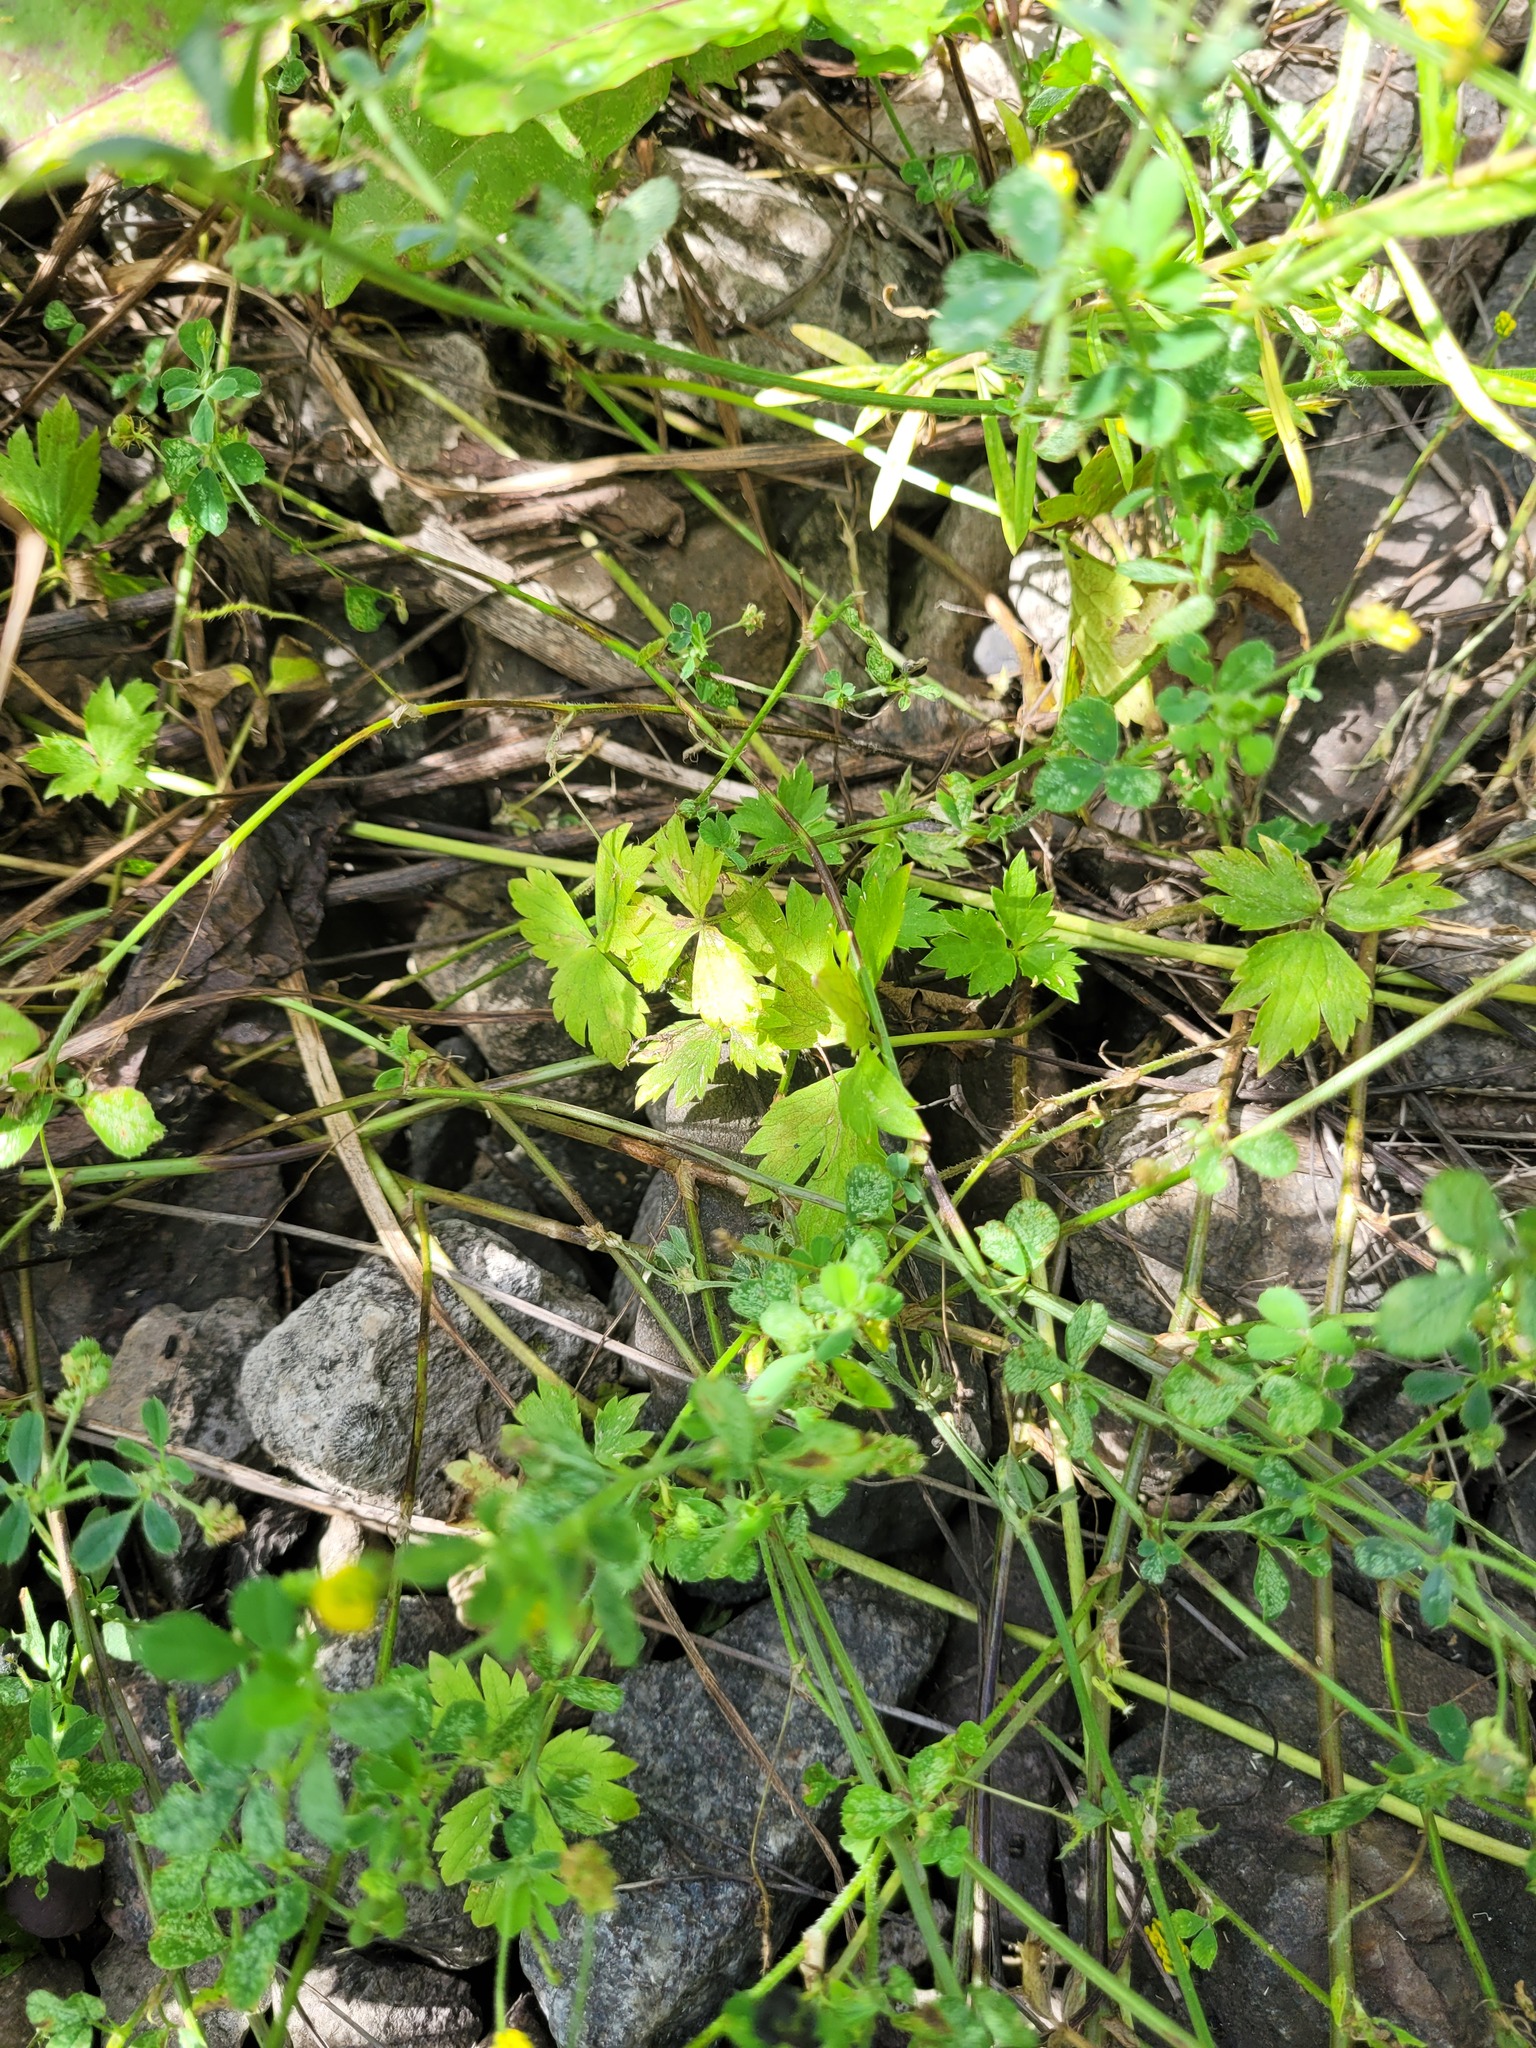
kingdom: Plantae
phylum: Tracheophyta
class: Magnoliopsida
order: Ranunculales
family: Ranunculaceae
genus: Ranunculus
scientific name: Ranunculus repens
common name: Creeping buttercup
